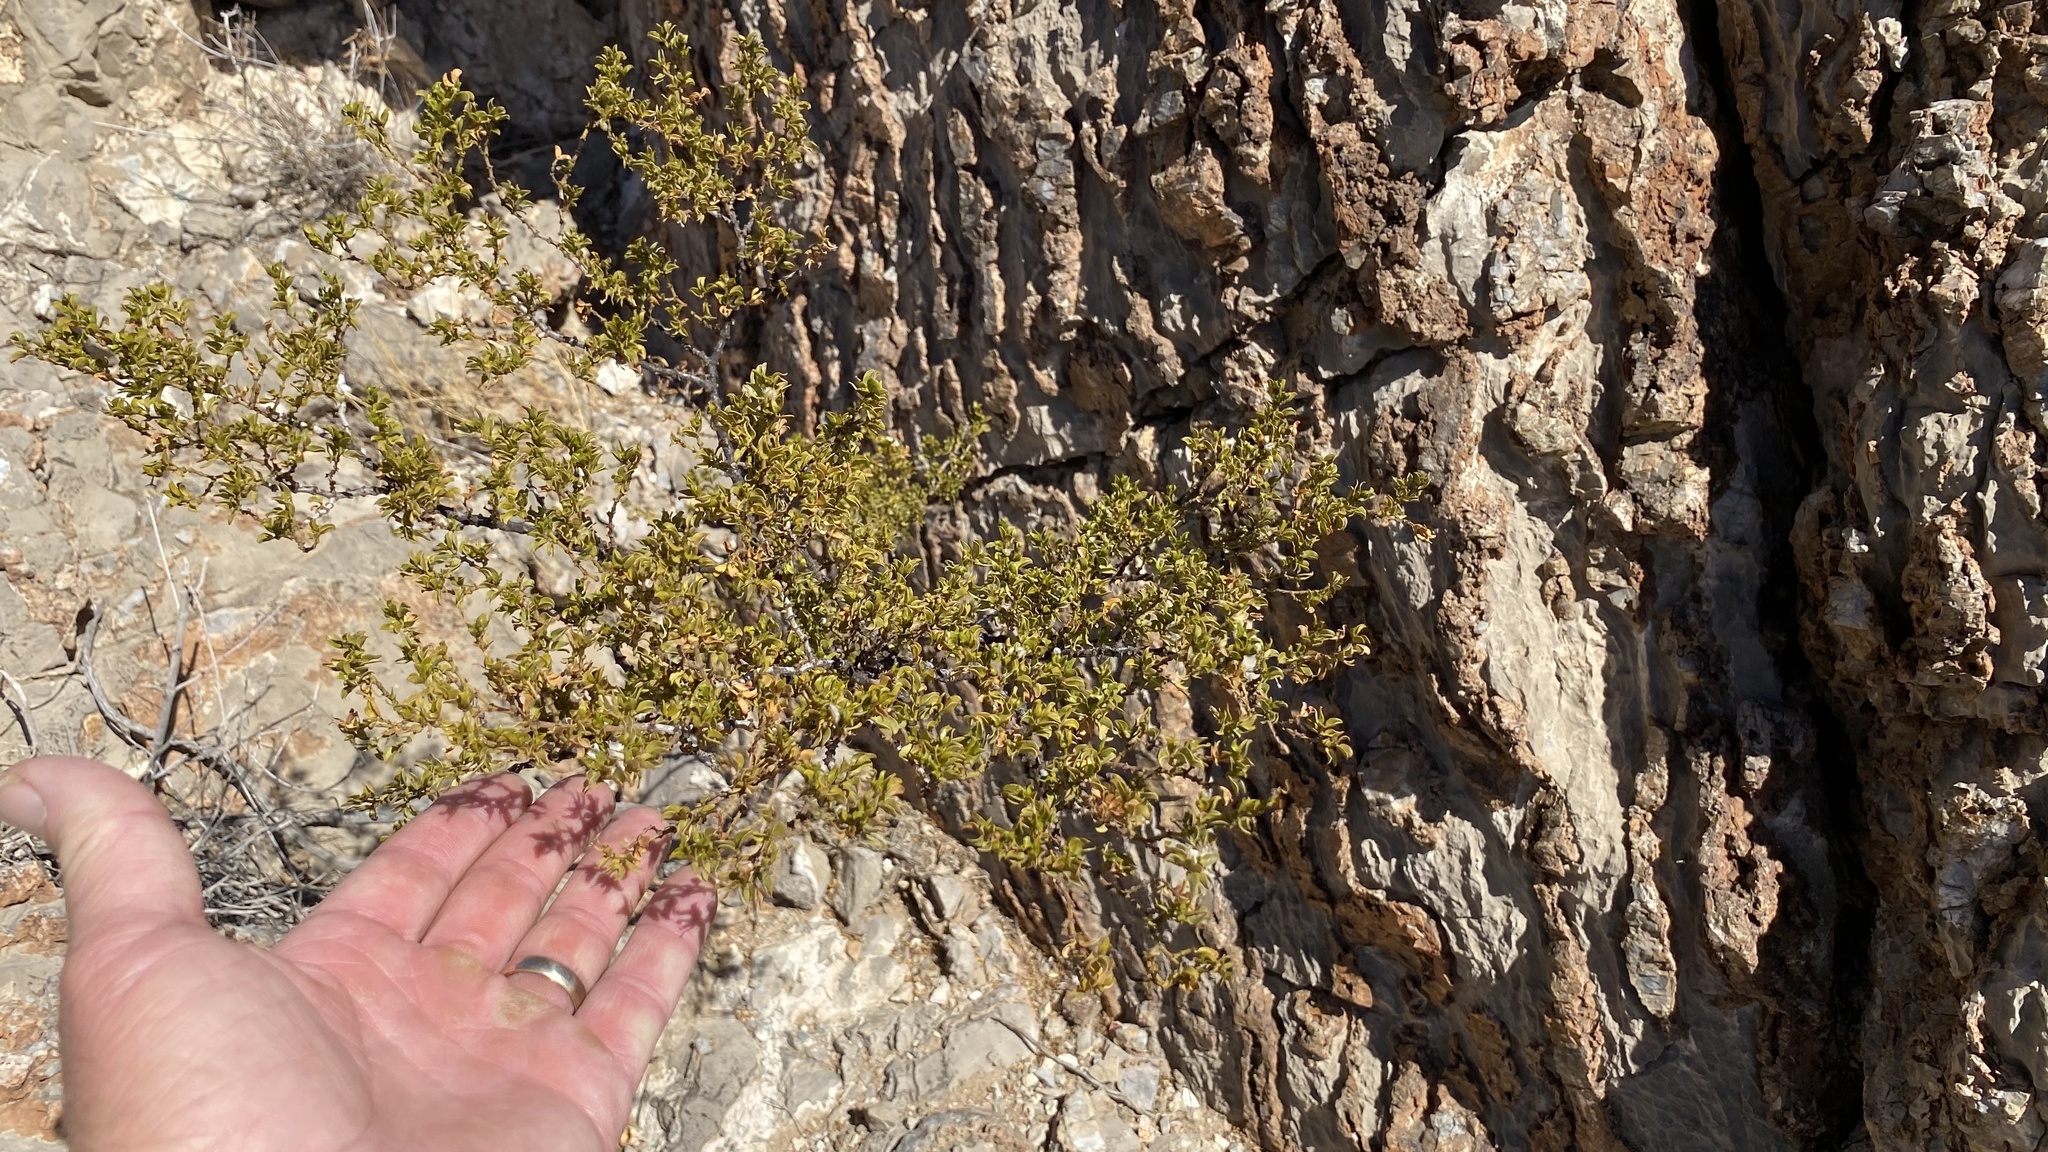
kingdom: Plantae
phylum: Tracheophyta
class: Magnoliopsida
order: Zygophyllales
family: Zygophyllaceae
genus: Larrea
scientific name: Larrea tridentata
